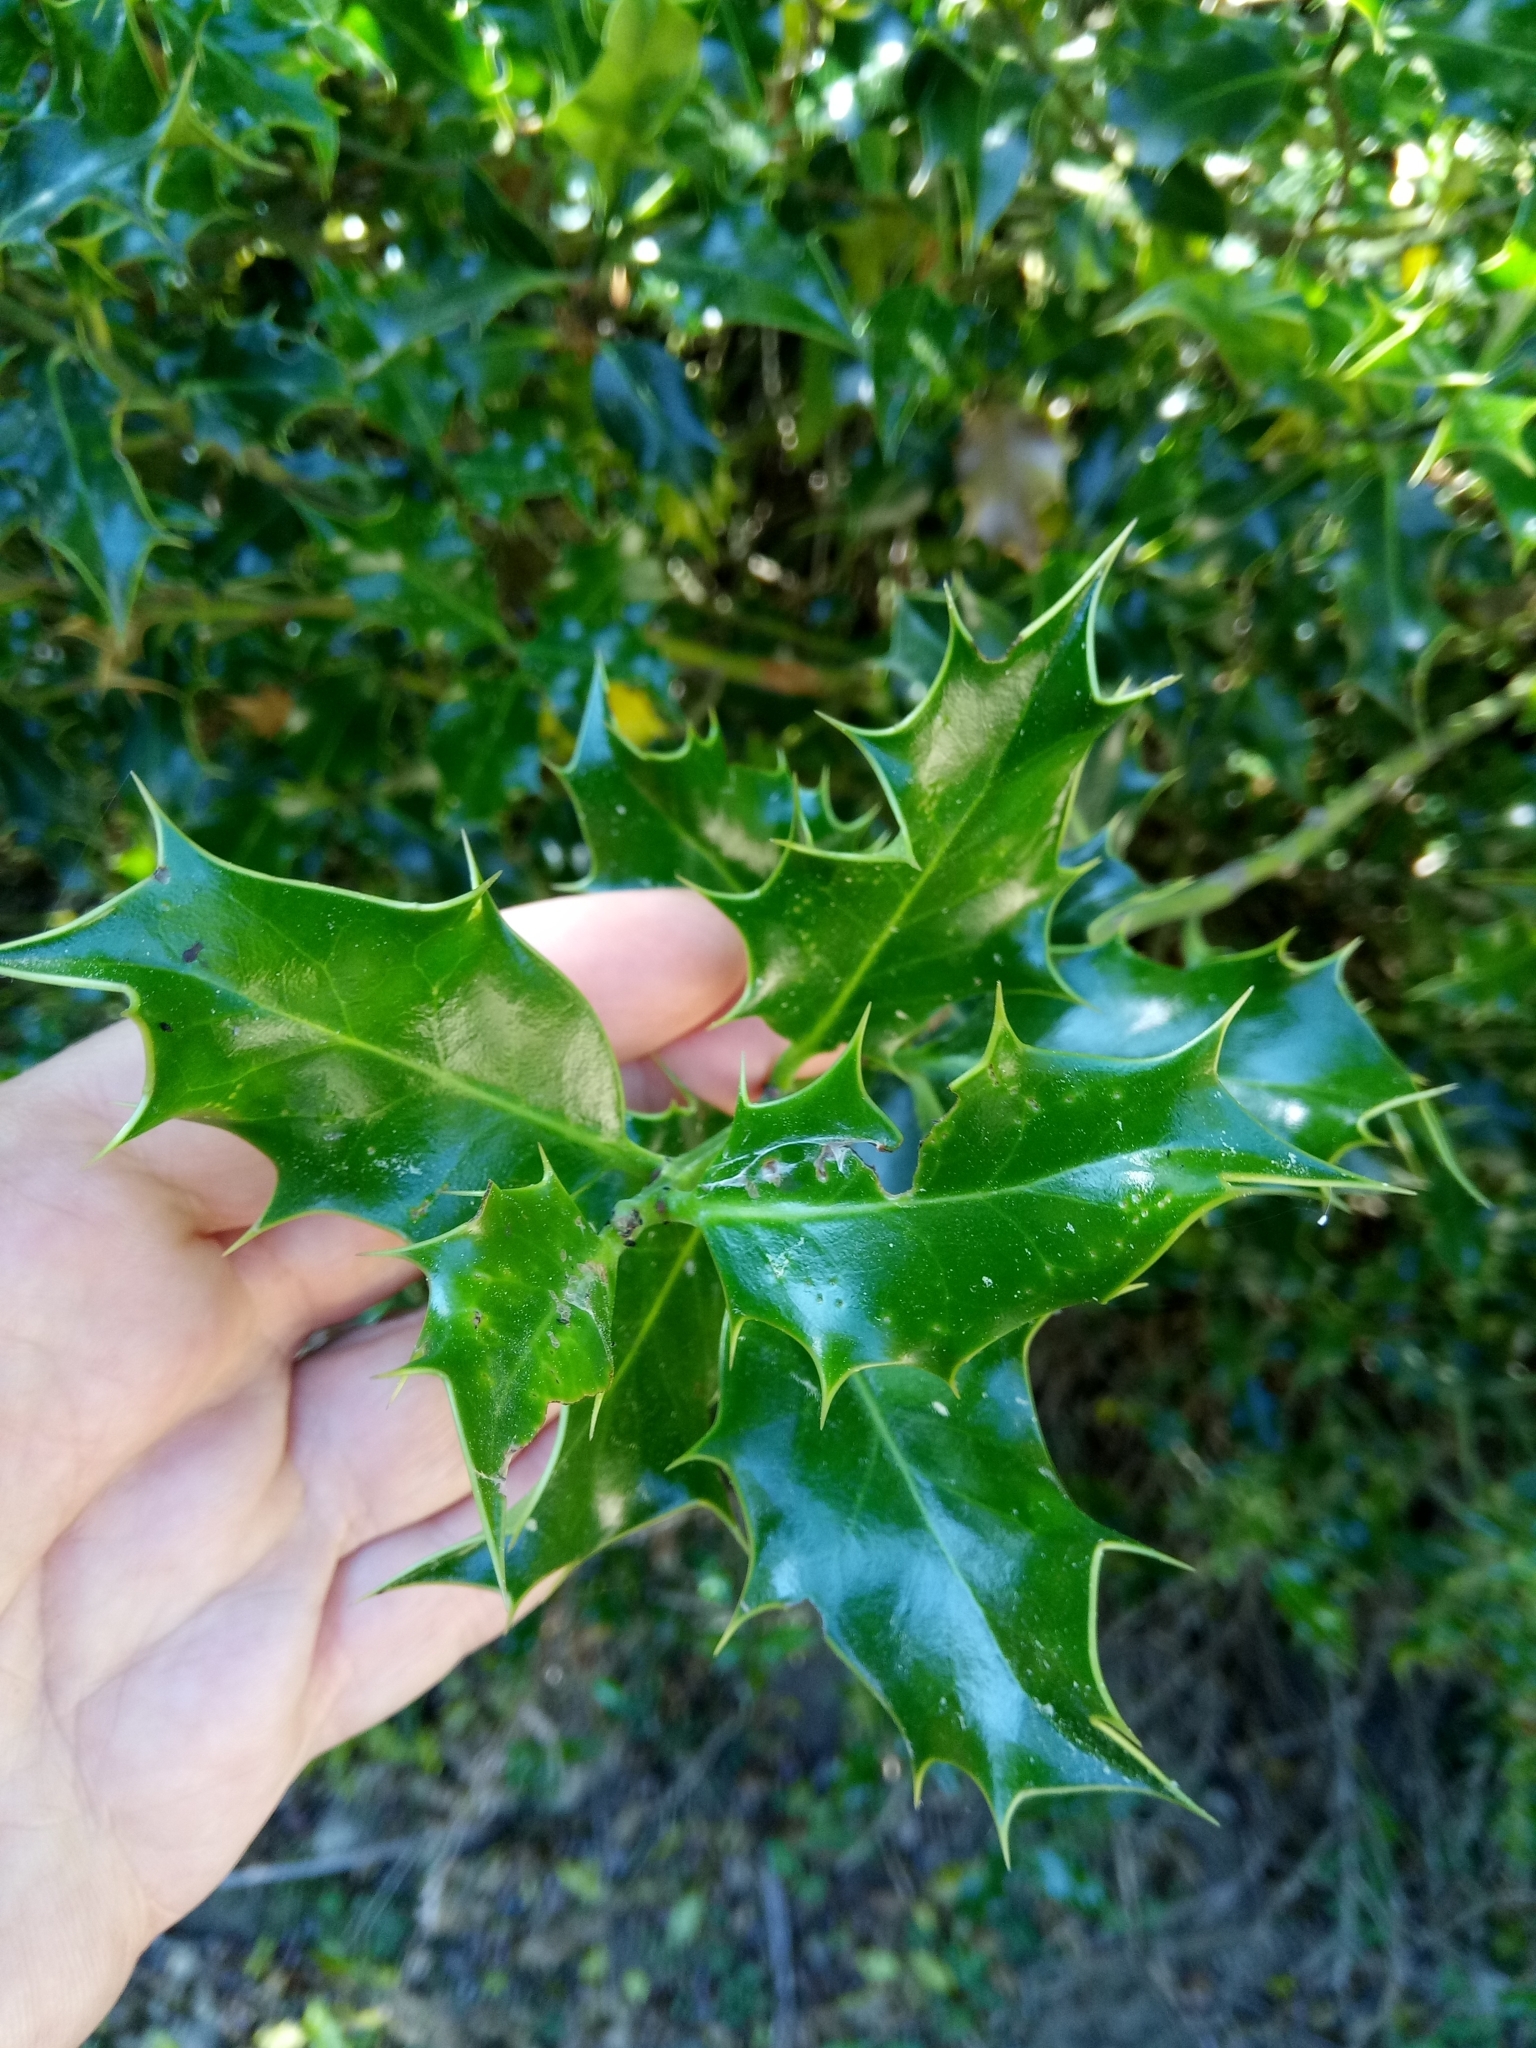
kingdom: Plantae
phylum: Tracheophyta
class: Magnoliopsida
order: Aquifoliales
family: Aquifoliaceae
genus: Ilex
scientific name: Ilex aquifolium
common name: English holly
